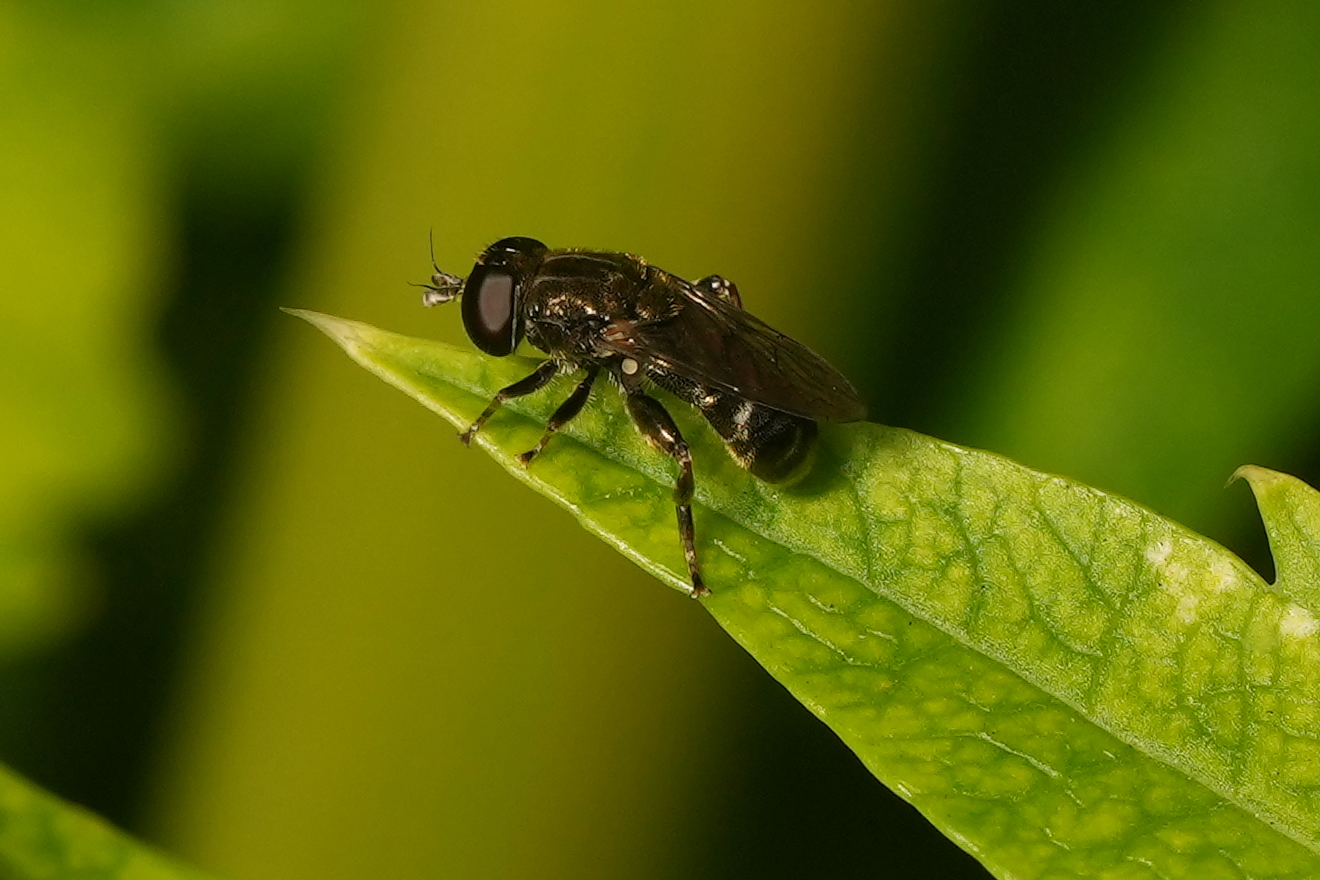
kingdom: Animalia
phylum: Arthropoda
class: Insecta
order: Diptera
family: Syrphidae
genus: Eumerus
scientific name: Eumerus
